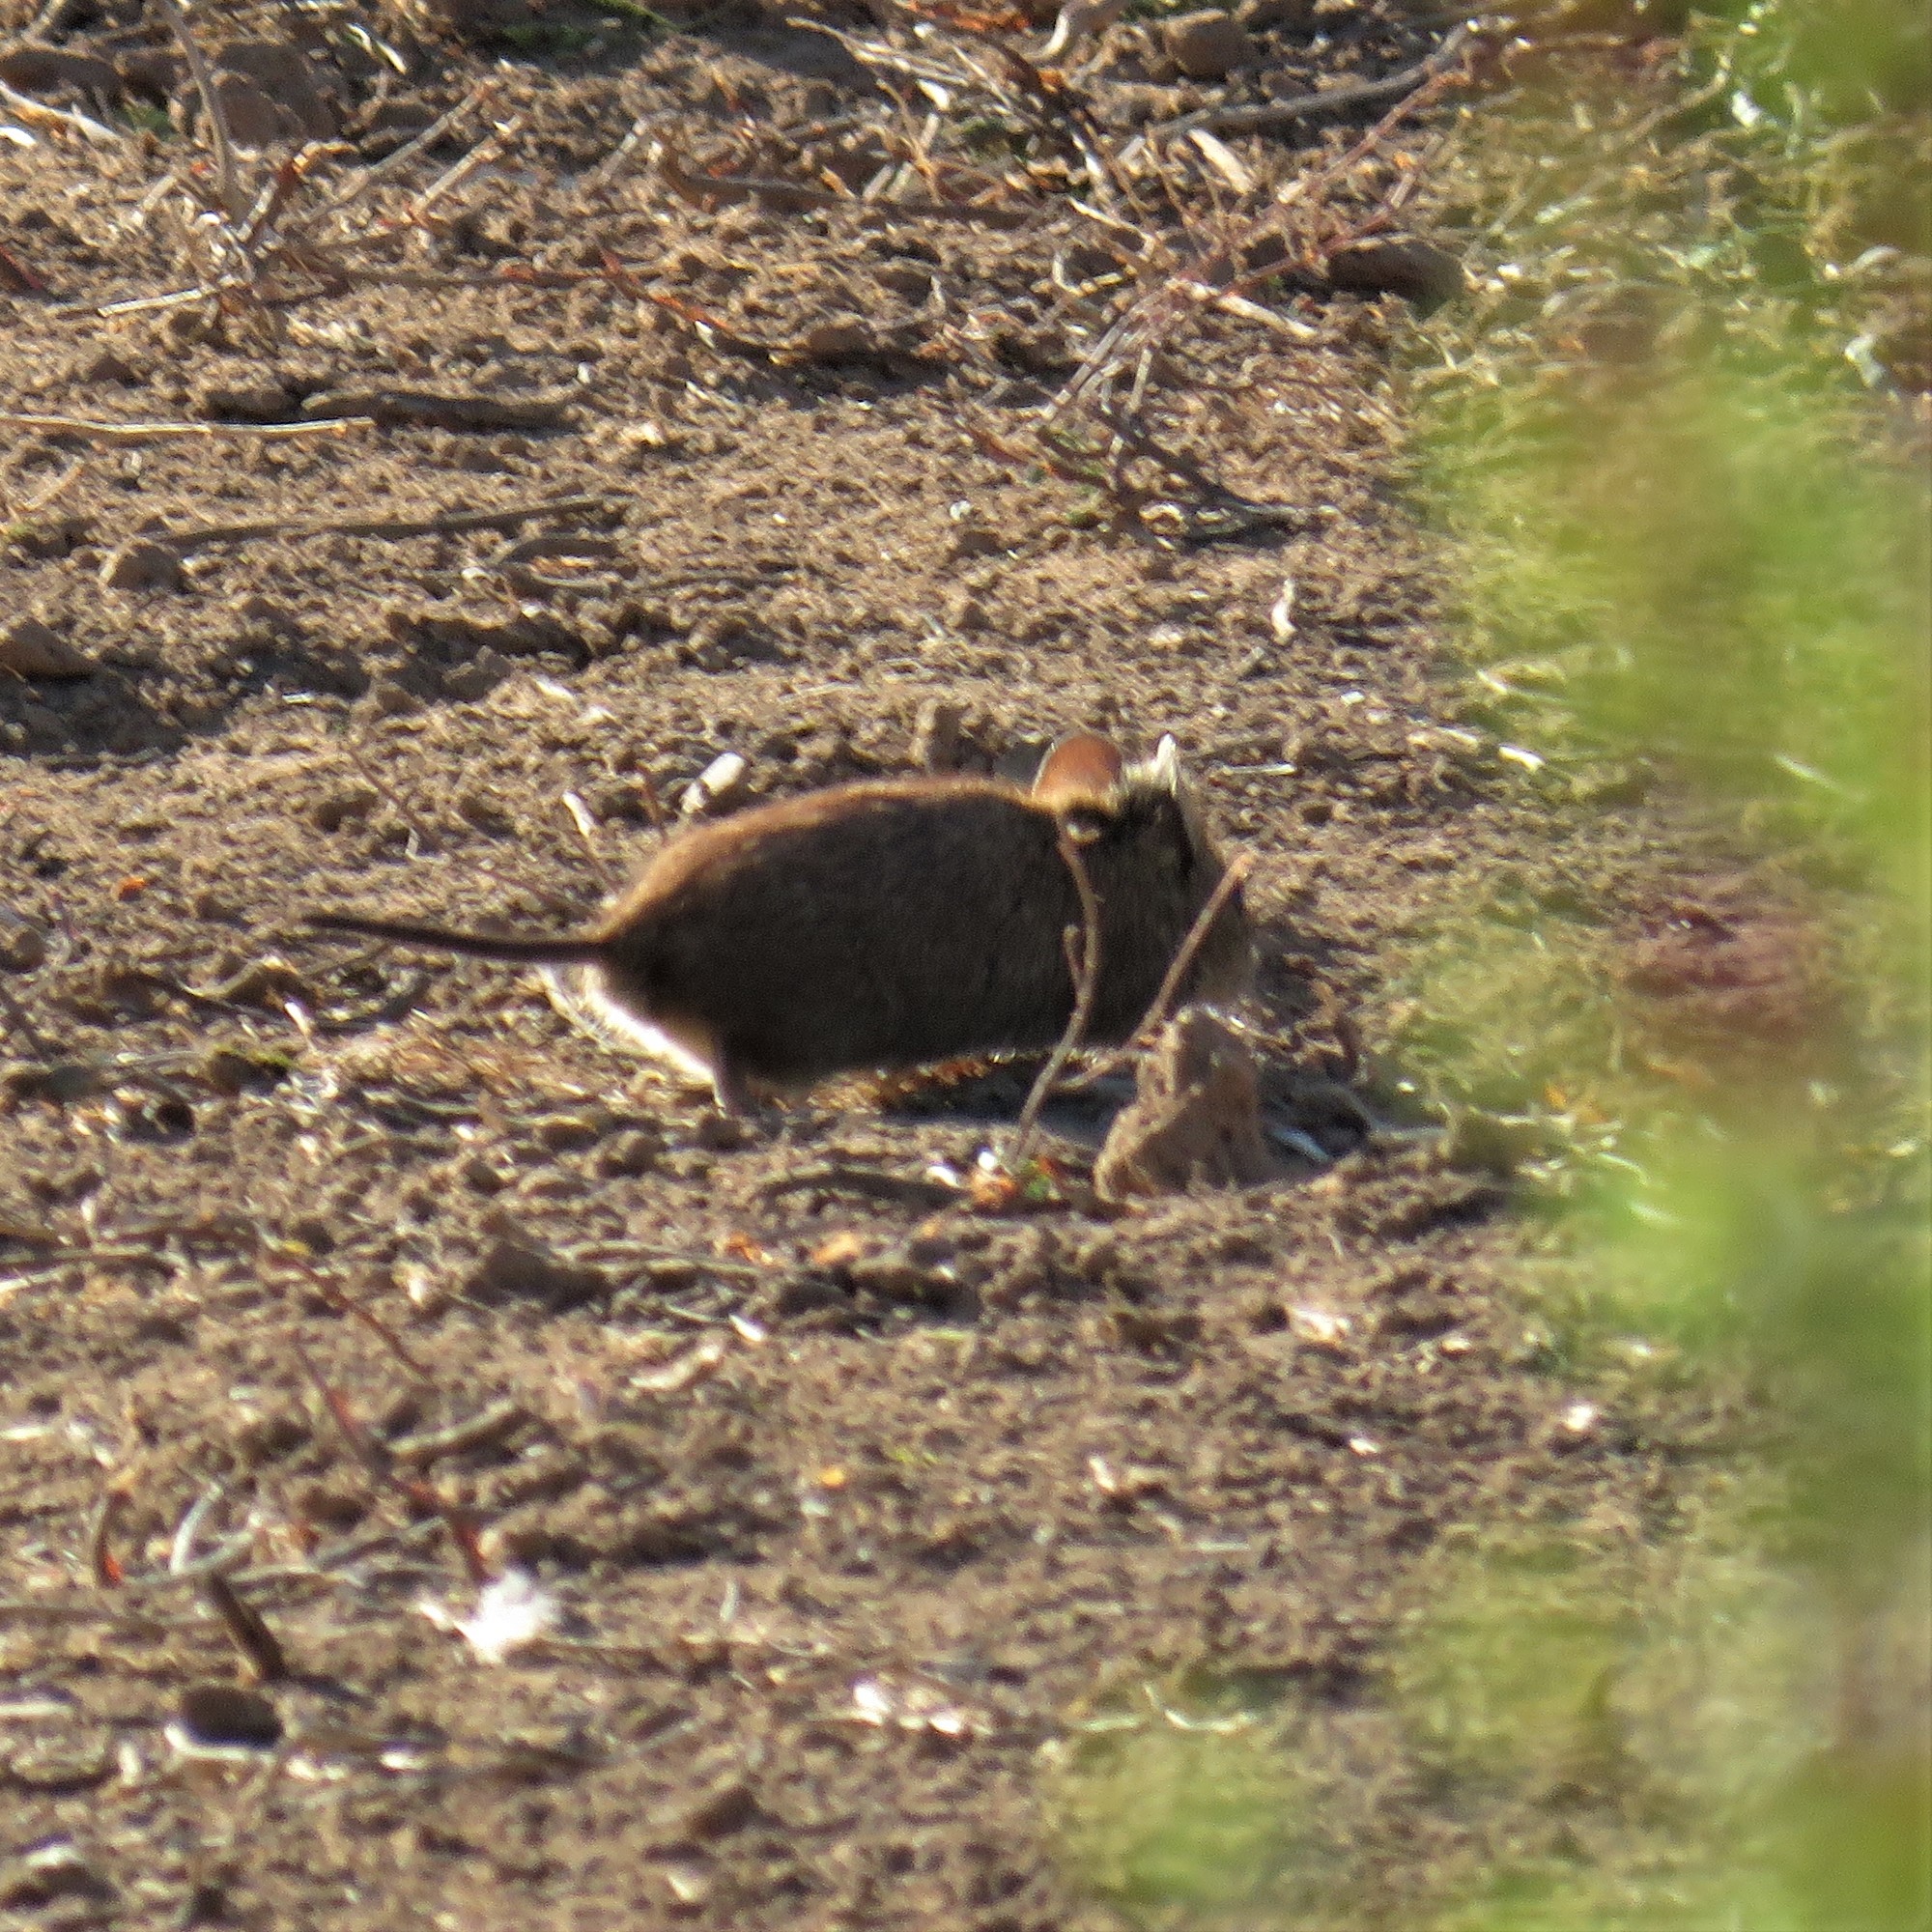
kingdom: Animalia
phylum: Chordata
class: Mammalia
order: Rodentia
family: Muridae
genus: Myotomys
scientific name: Myotomys unisulcatus
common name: Bush karroo rat
